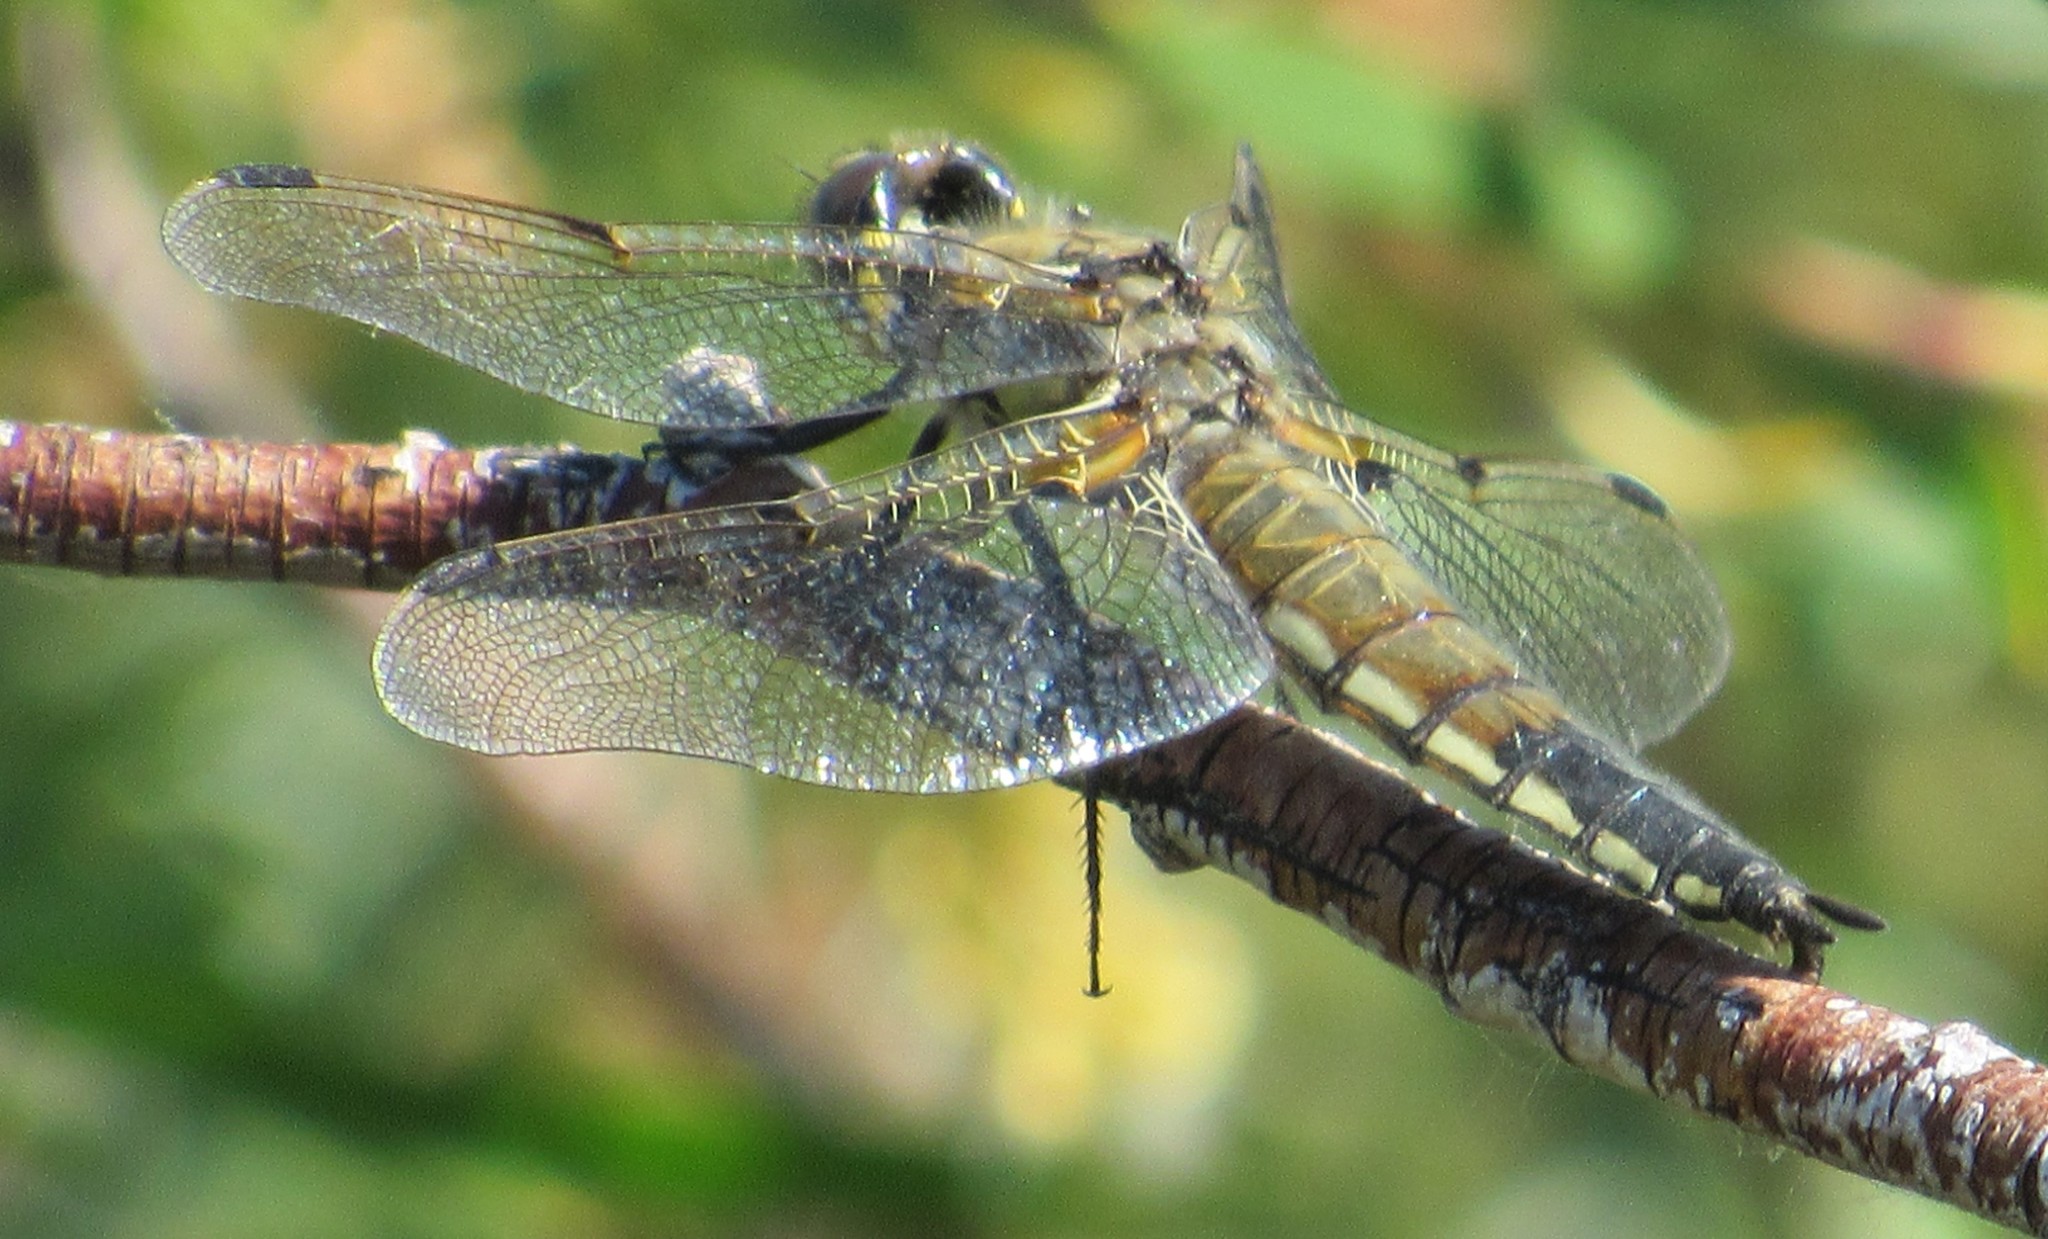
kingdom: Animalia
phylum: Arthropoda
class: Insecta
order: Odonata
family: Libellulidae
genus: Libellula
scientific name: Libellula quadrimaculata
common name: Four-spotted chaser
